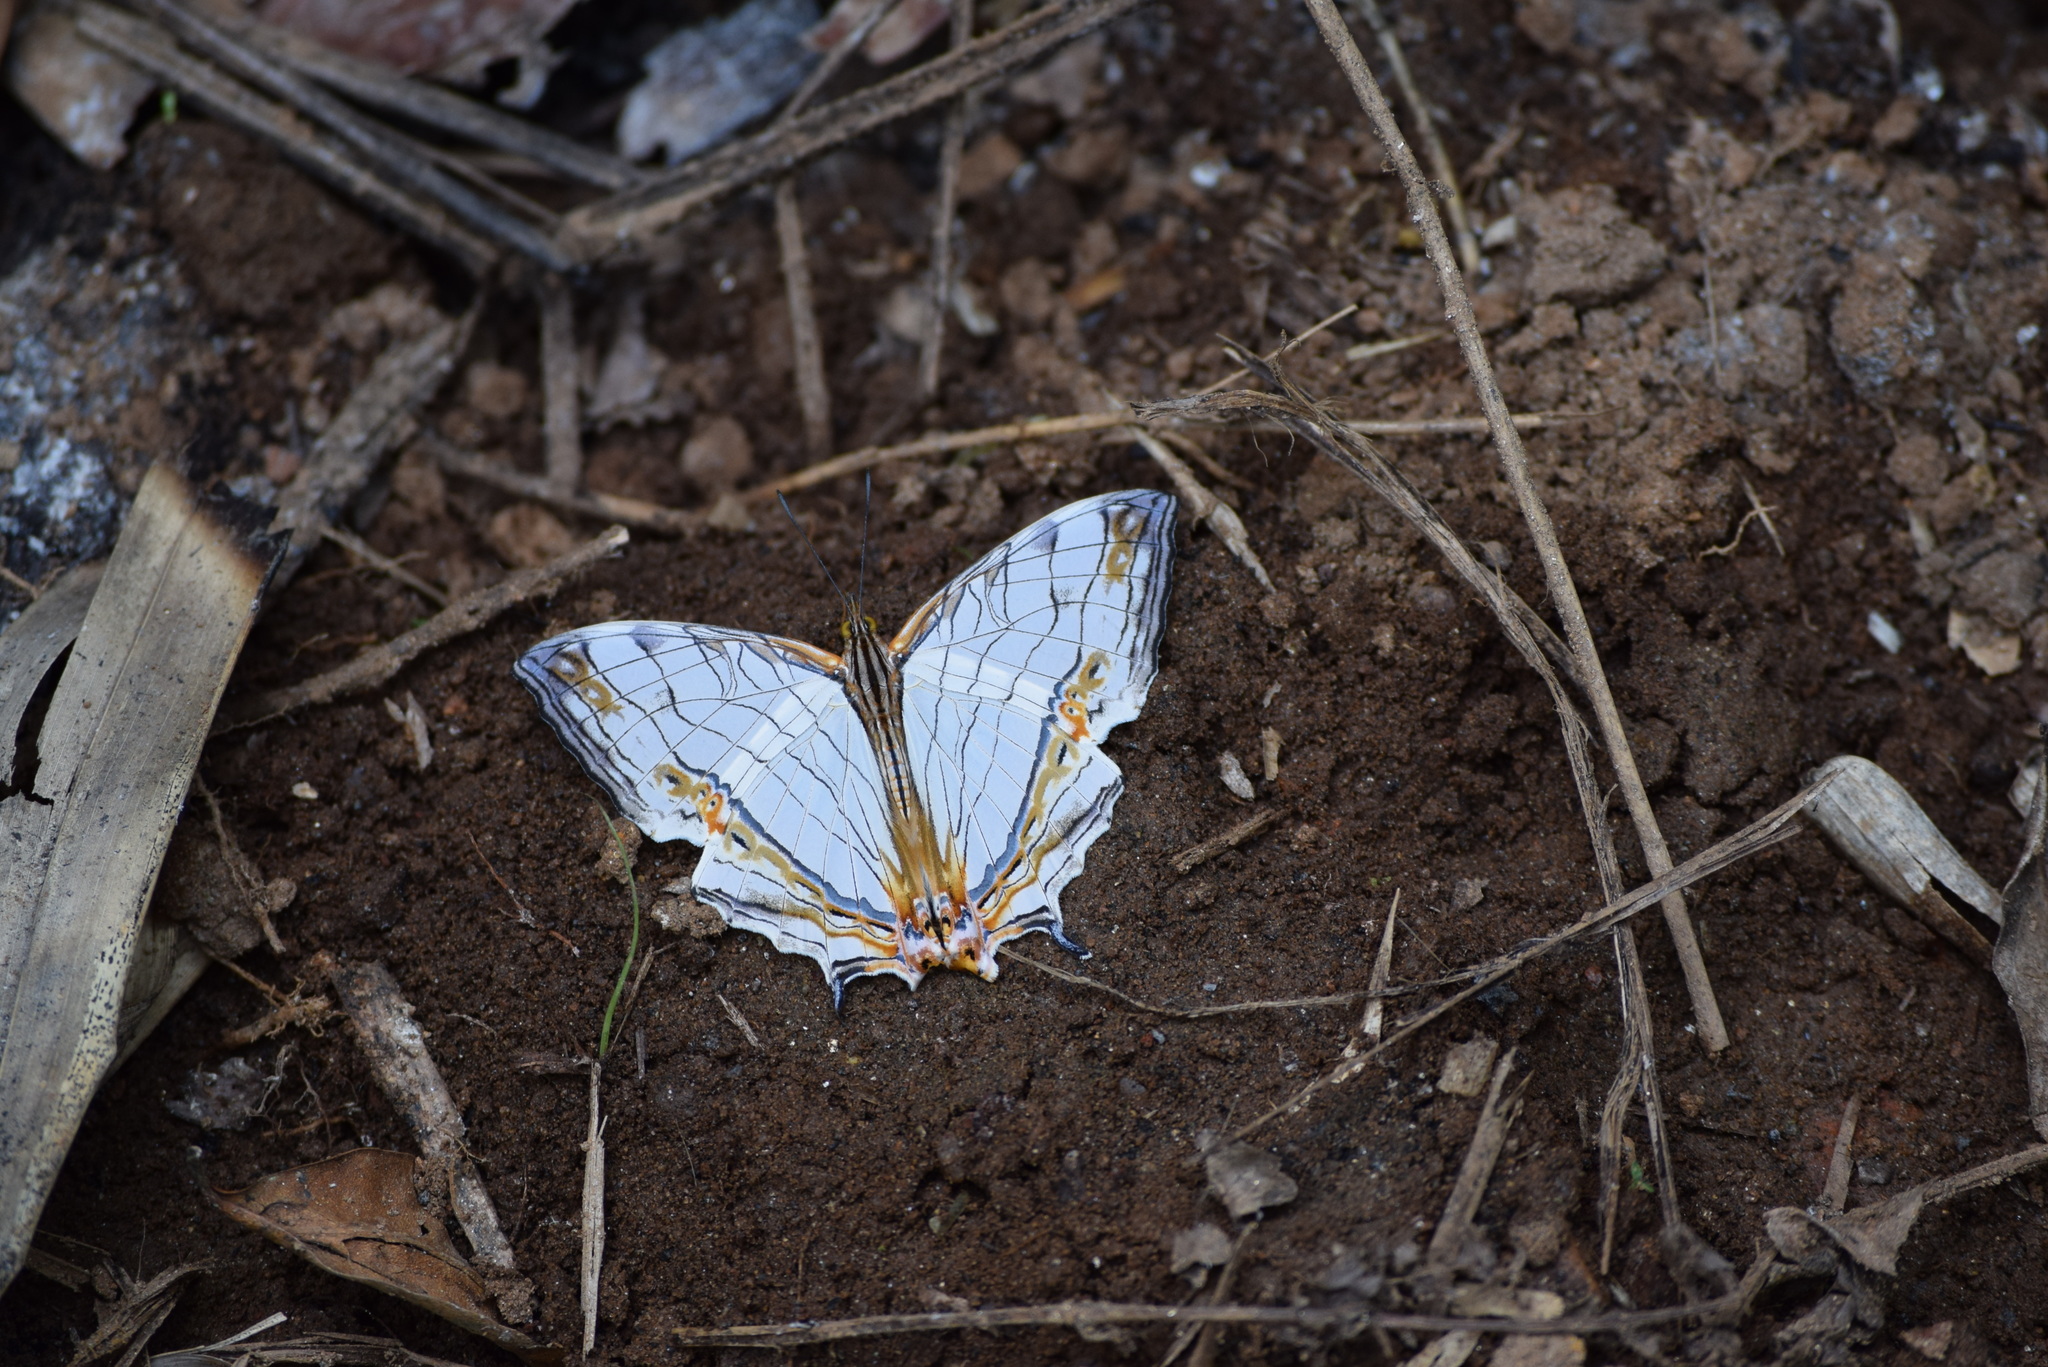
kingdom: Animalia
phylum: Arthropoda
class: Insecta
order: Lepidoptera
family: Nymphalidae
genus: Cyrestis
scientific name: Cyrestis thyodamas
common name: Common mapwing
